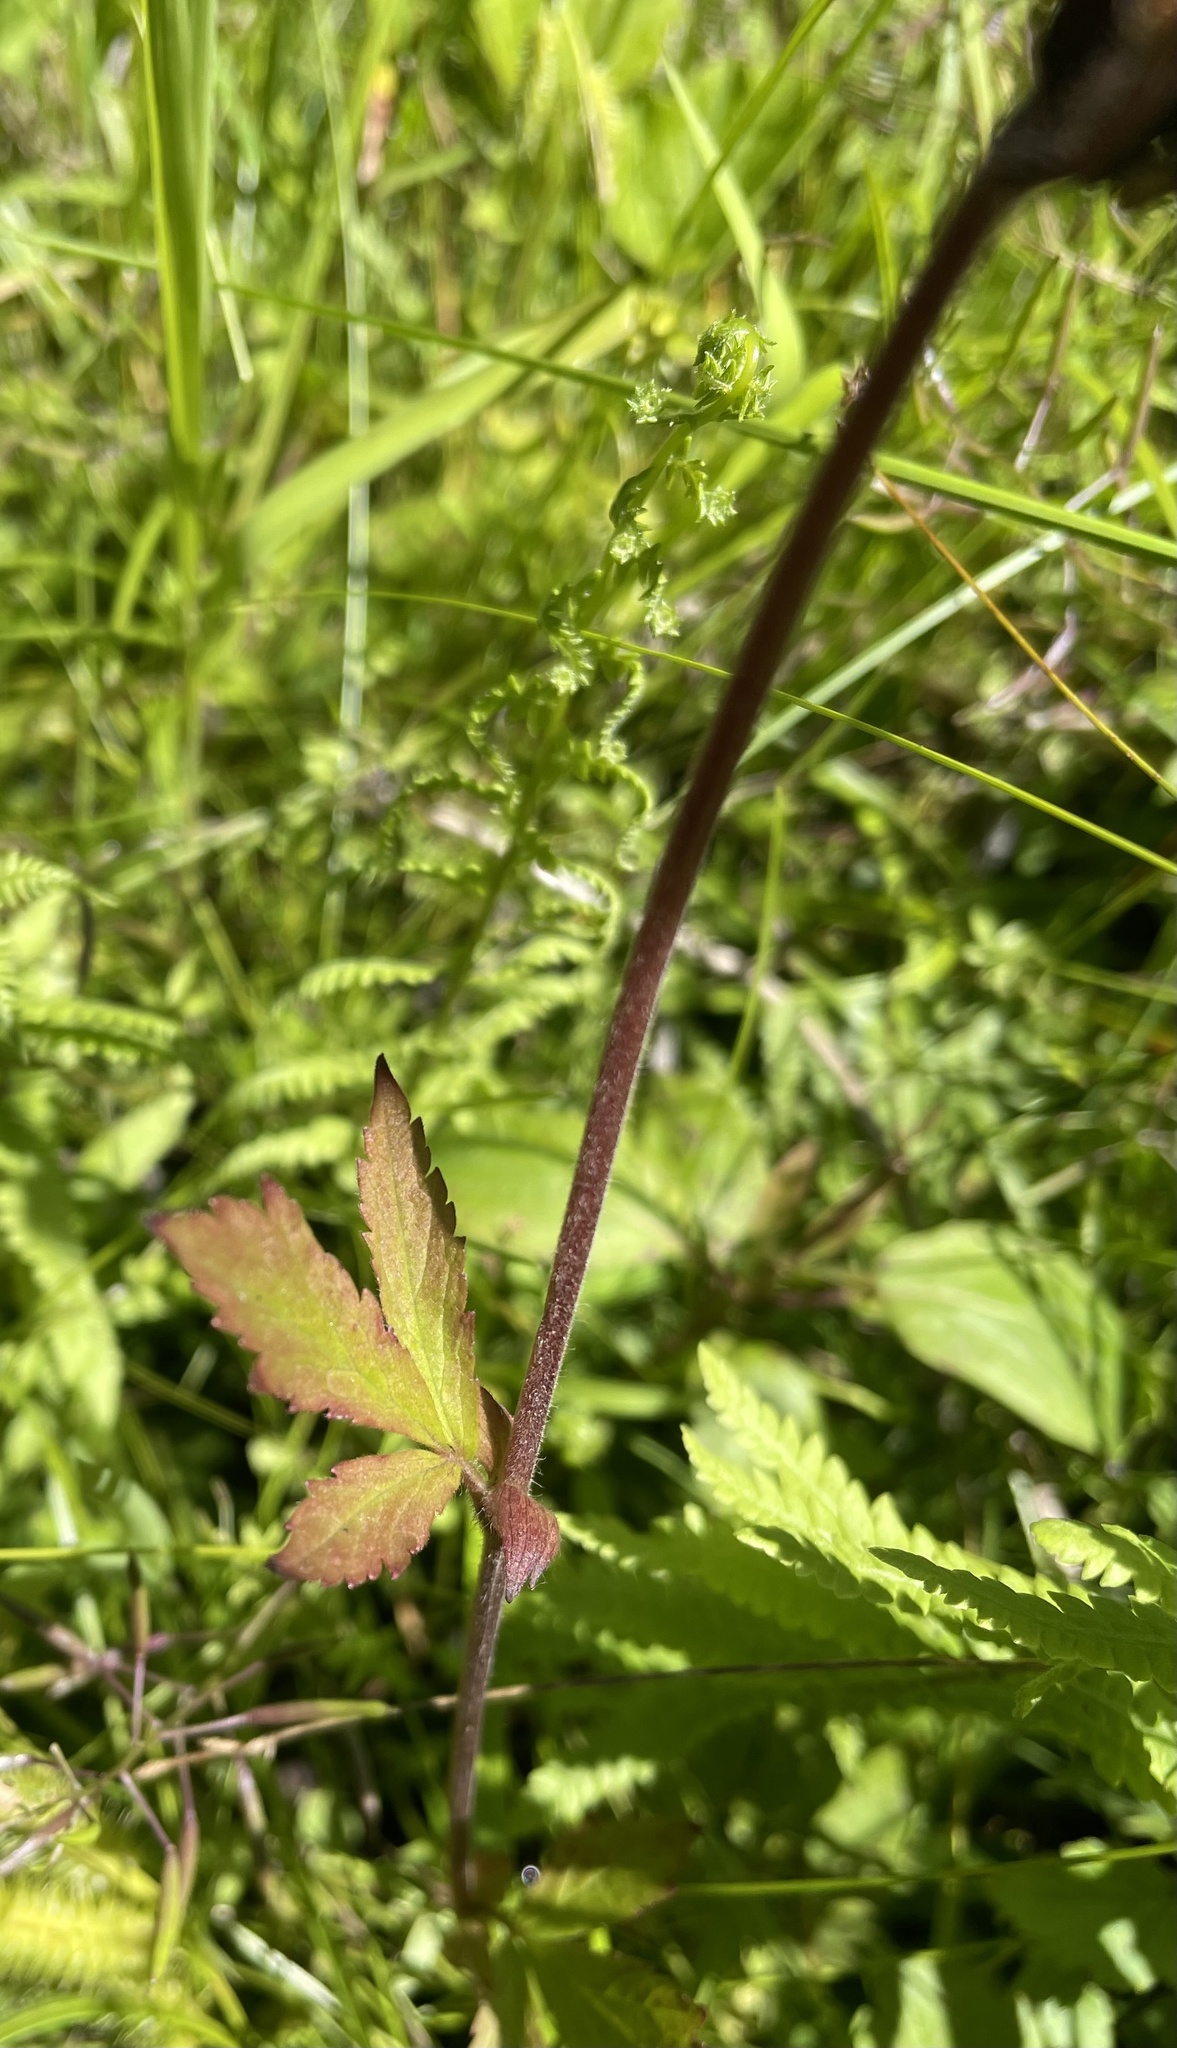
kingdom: Plantae
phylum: Tracheophyta
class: Magnoliopsida
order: Rosales
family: Rosaceae
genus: Geum
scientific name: Geum rivale
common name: Water avens
